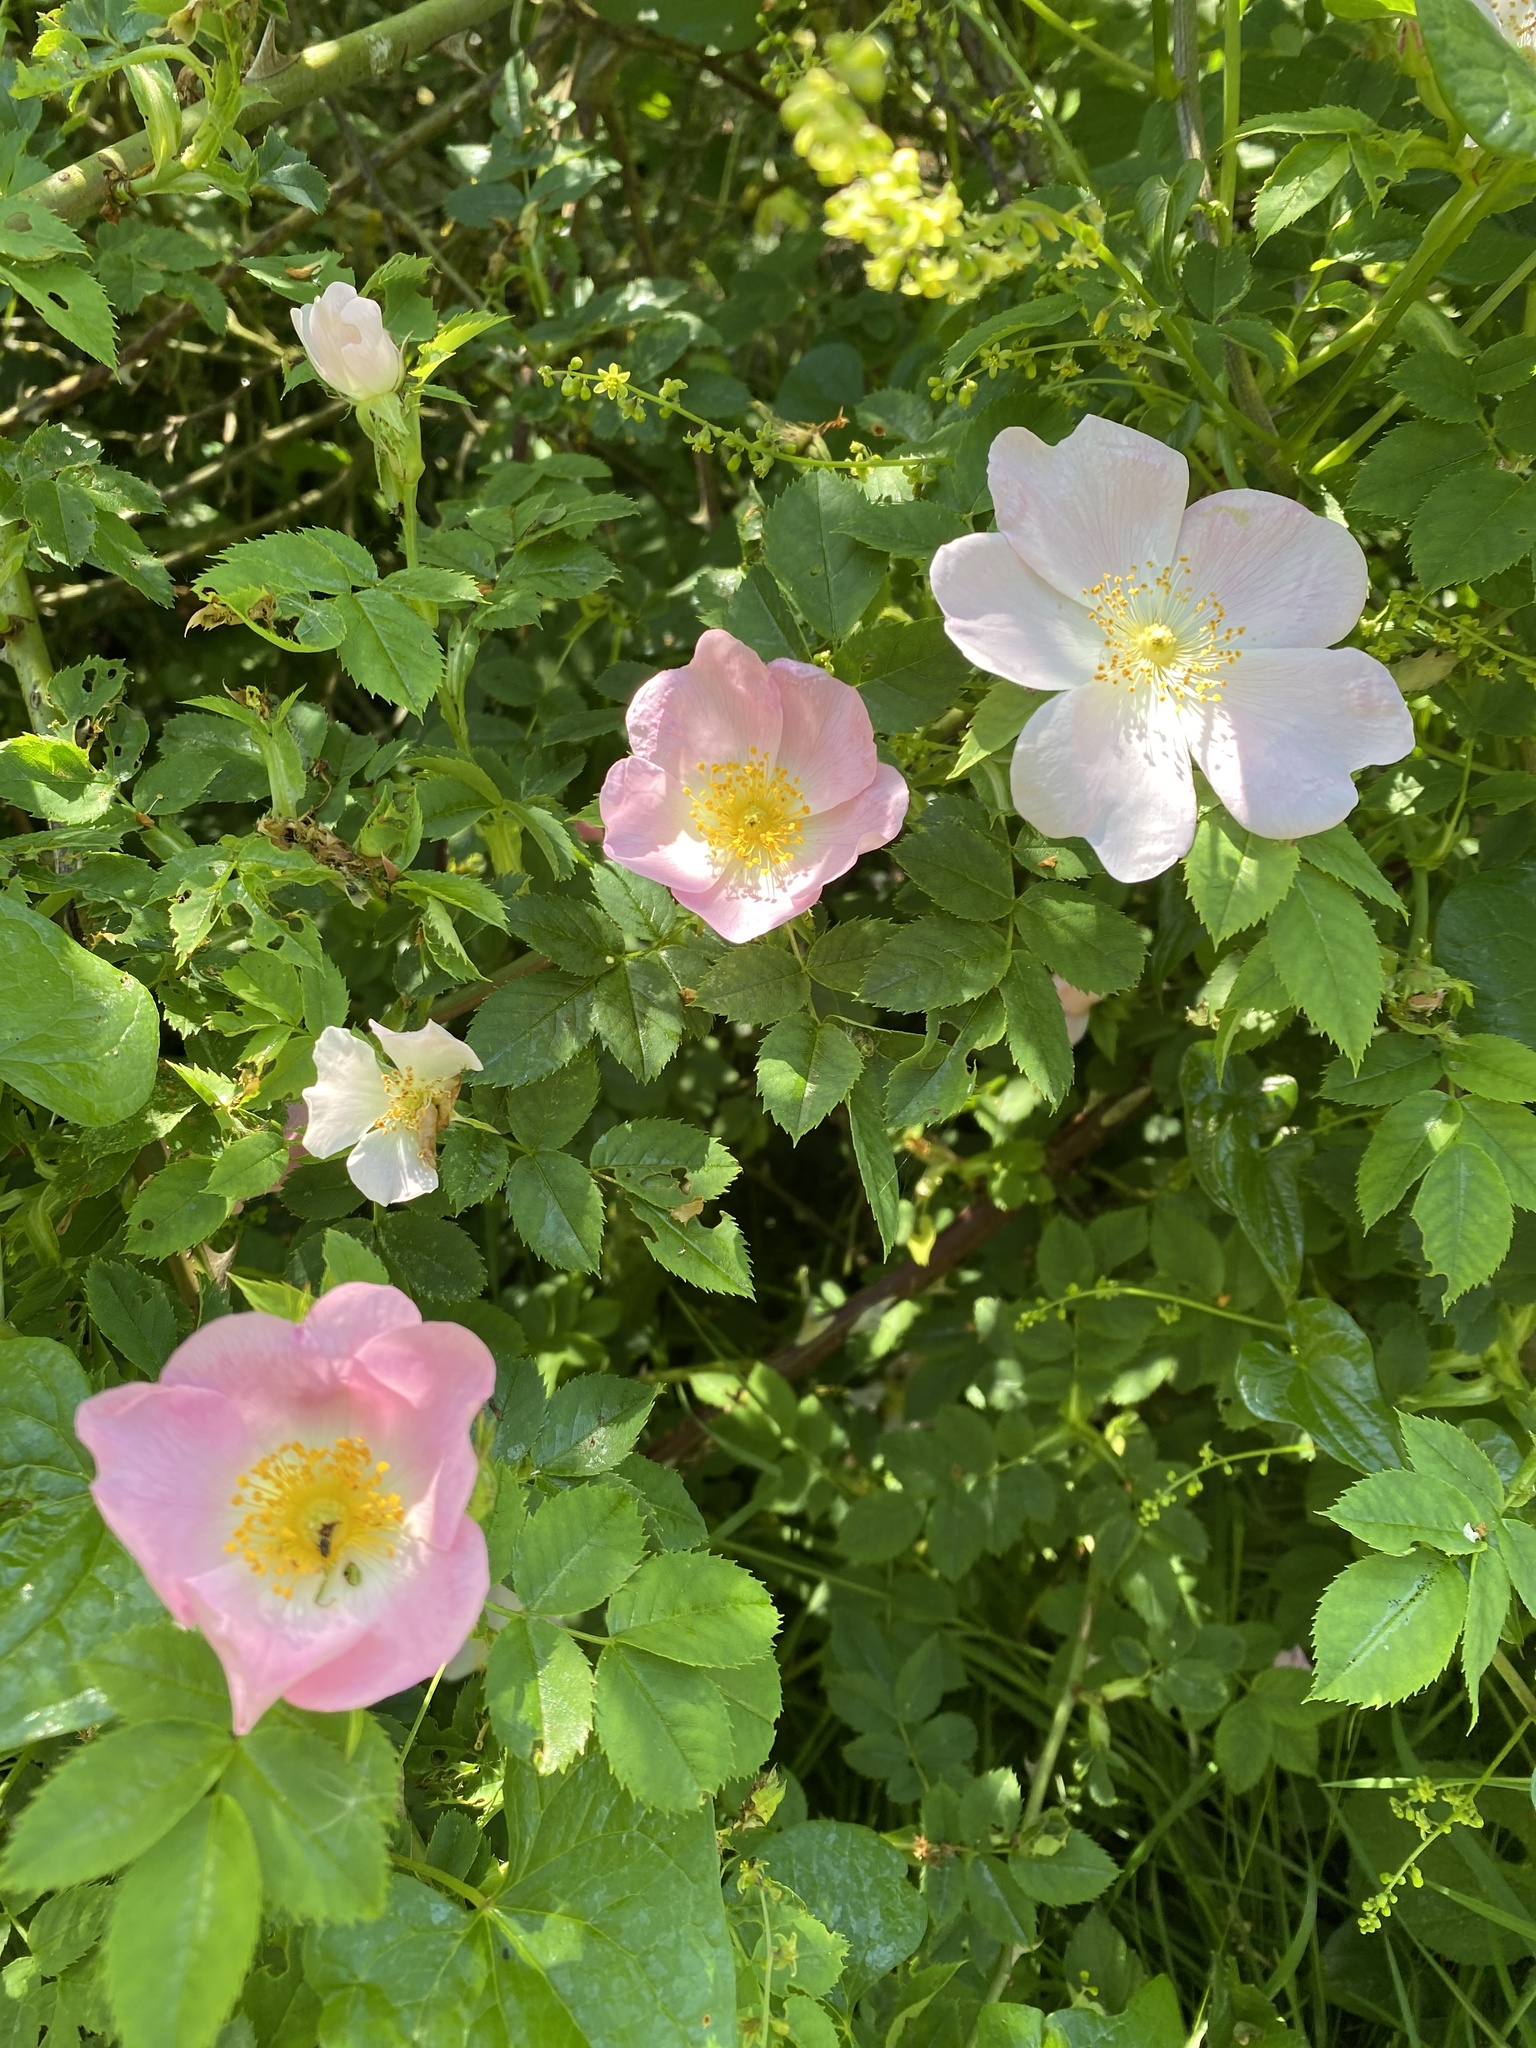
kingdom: Plantae
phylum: Tracheophyta
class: Magnoliopsida
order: Rosales
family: Rosaceae
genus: Rosa
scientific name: Rosa canina
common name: Dog rose
